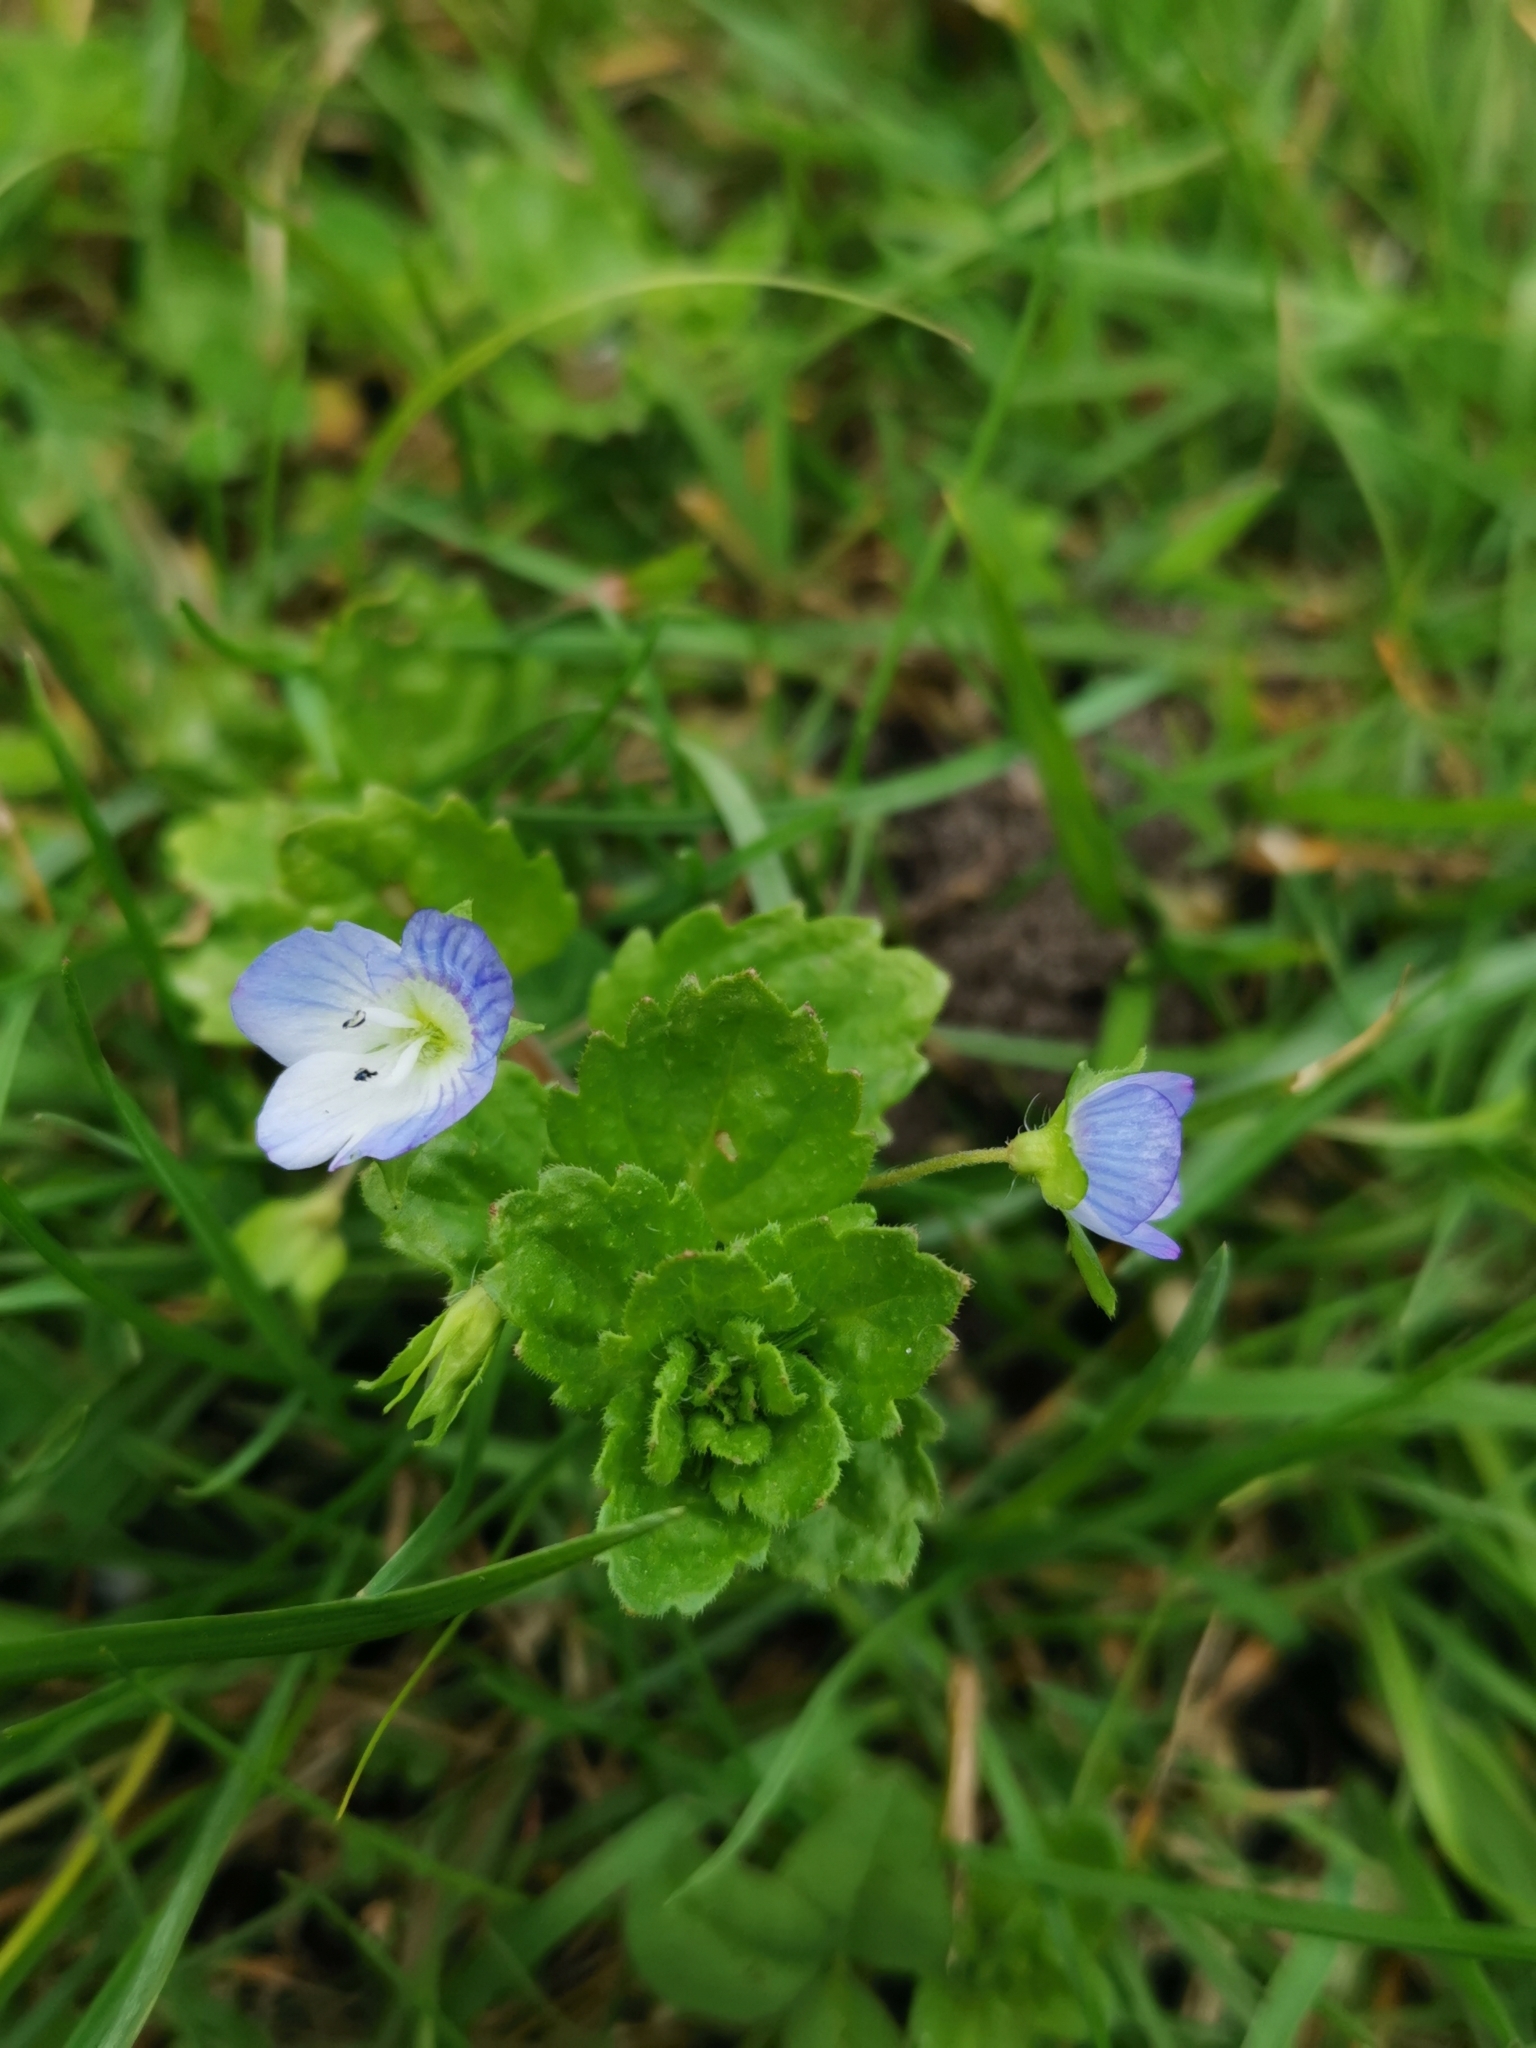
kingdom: Plantae
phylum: Tracheophyta
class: Magnoliopsida
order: Lamiales
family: Plantaginaceae
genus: Veronica
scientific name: Veronica persica
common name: Common field-speedwell
